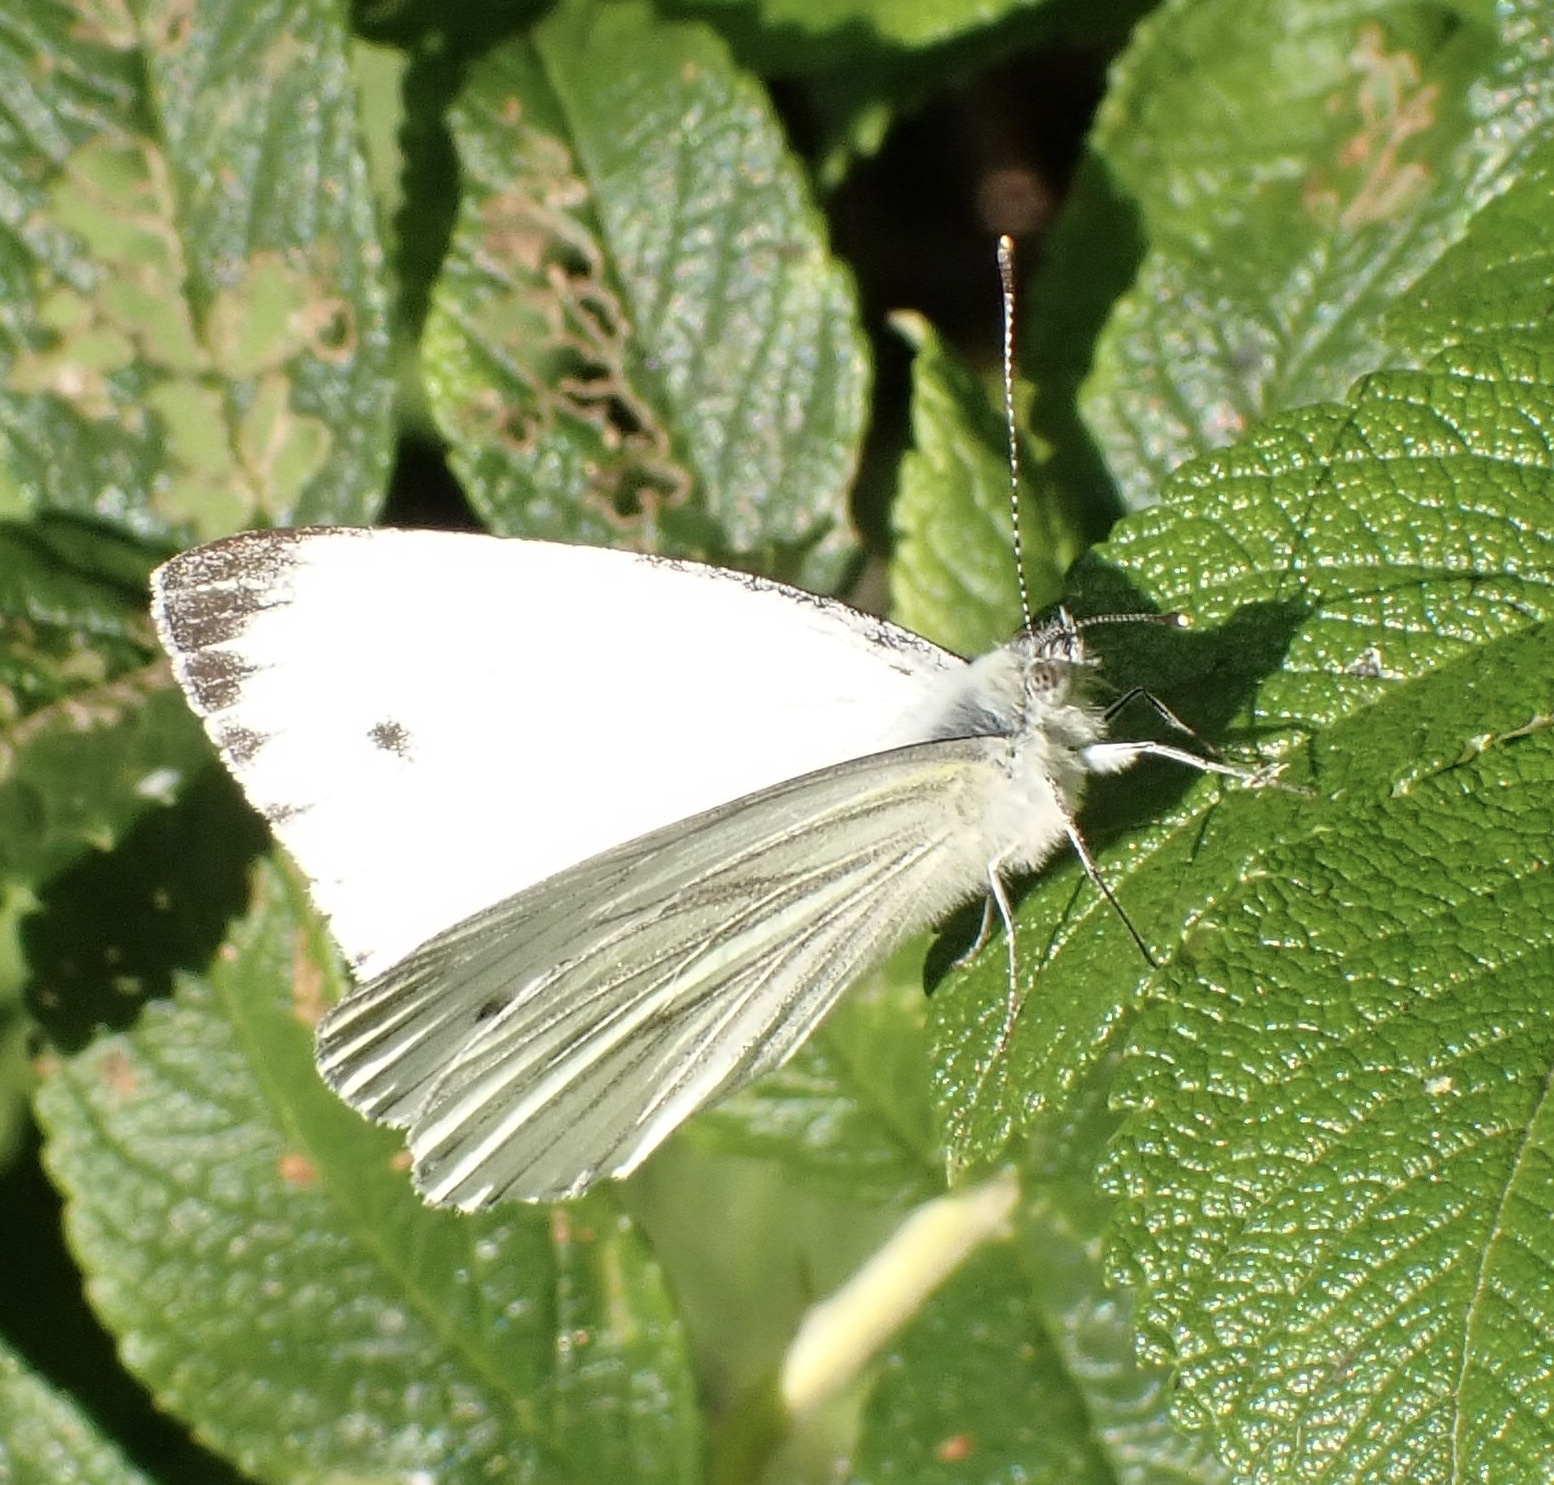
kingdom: Animalia
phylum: Arthropoda
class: Insecta
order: Lepidoptera
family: Pieridae
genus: Pieris
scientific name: Pieris napi
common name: Green-veined white
